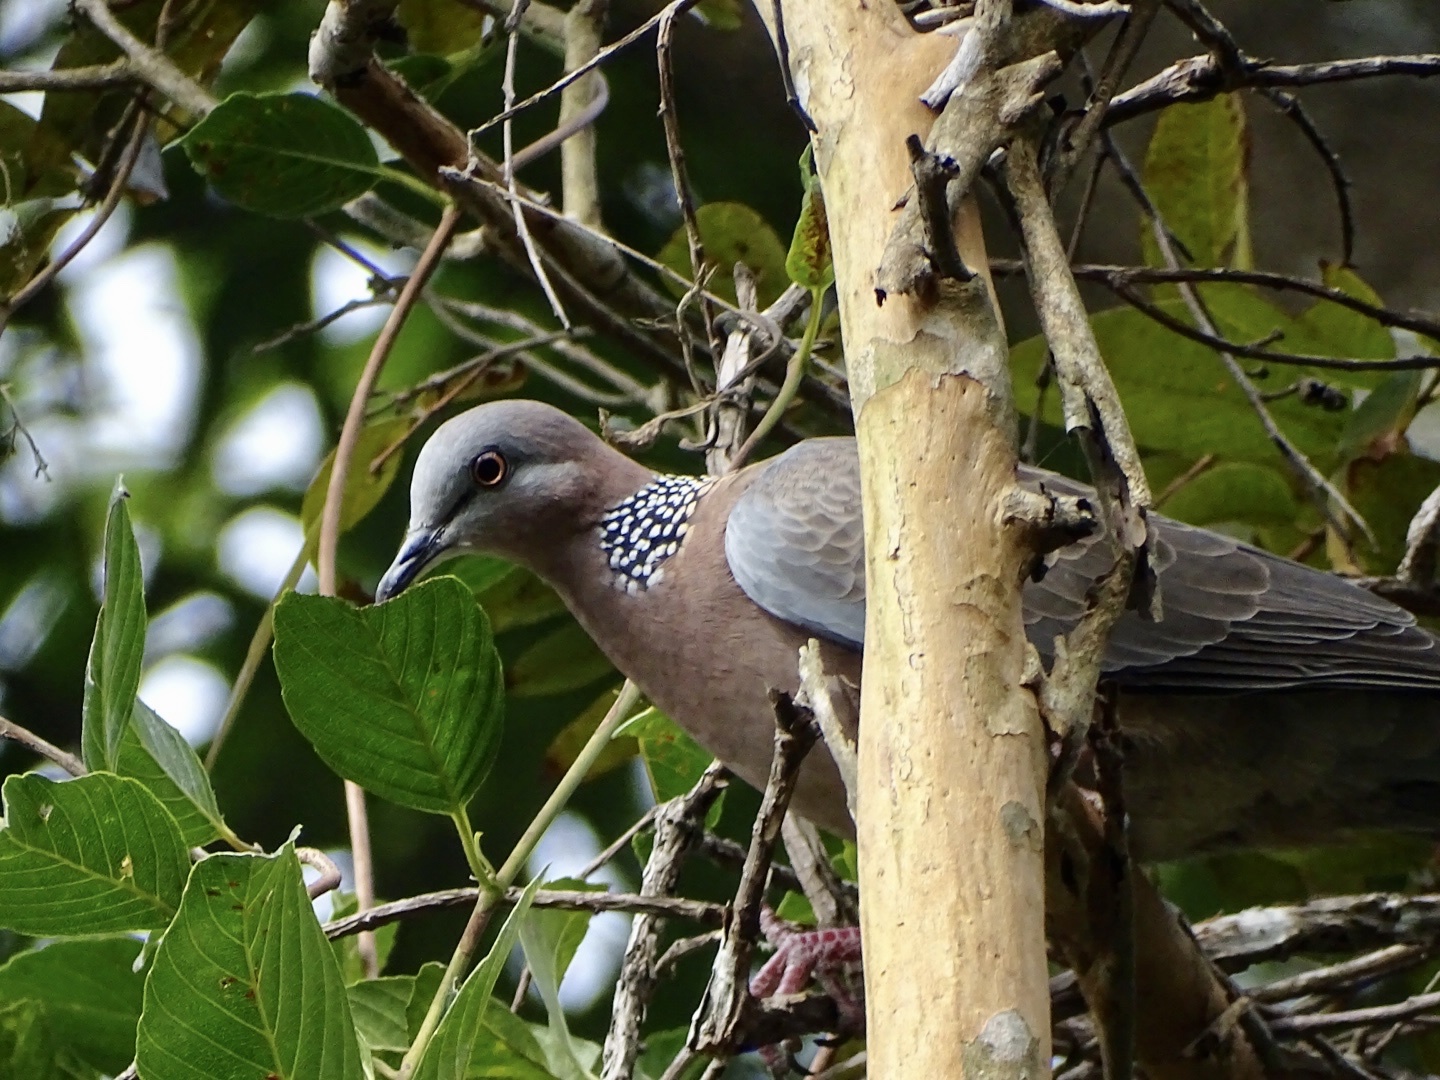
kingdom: Animalia
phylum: Chordata
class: Aves
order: Columbiformes
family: Columbidae
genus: Spilopelia
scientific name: Spilopelia chinensis
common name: Spotted dove
